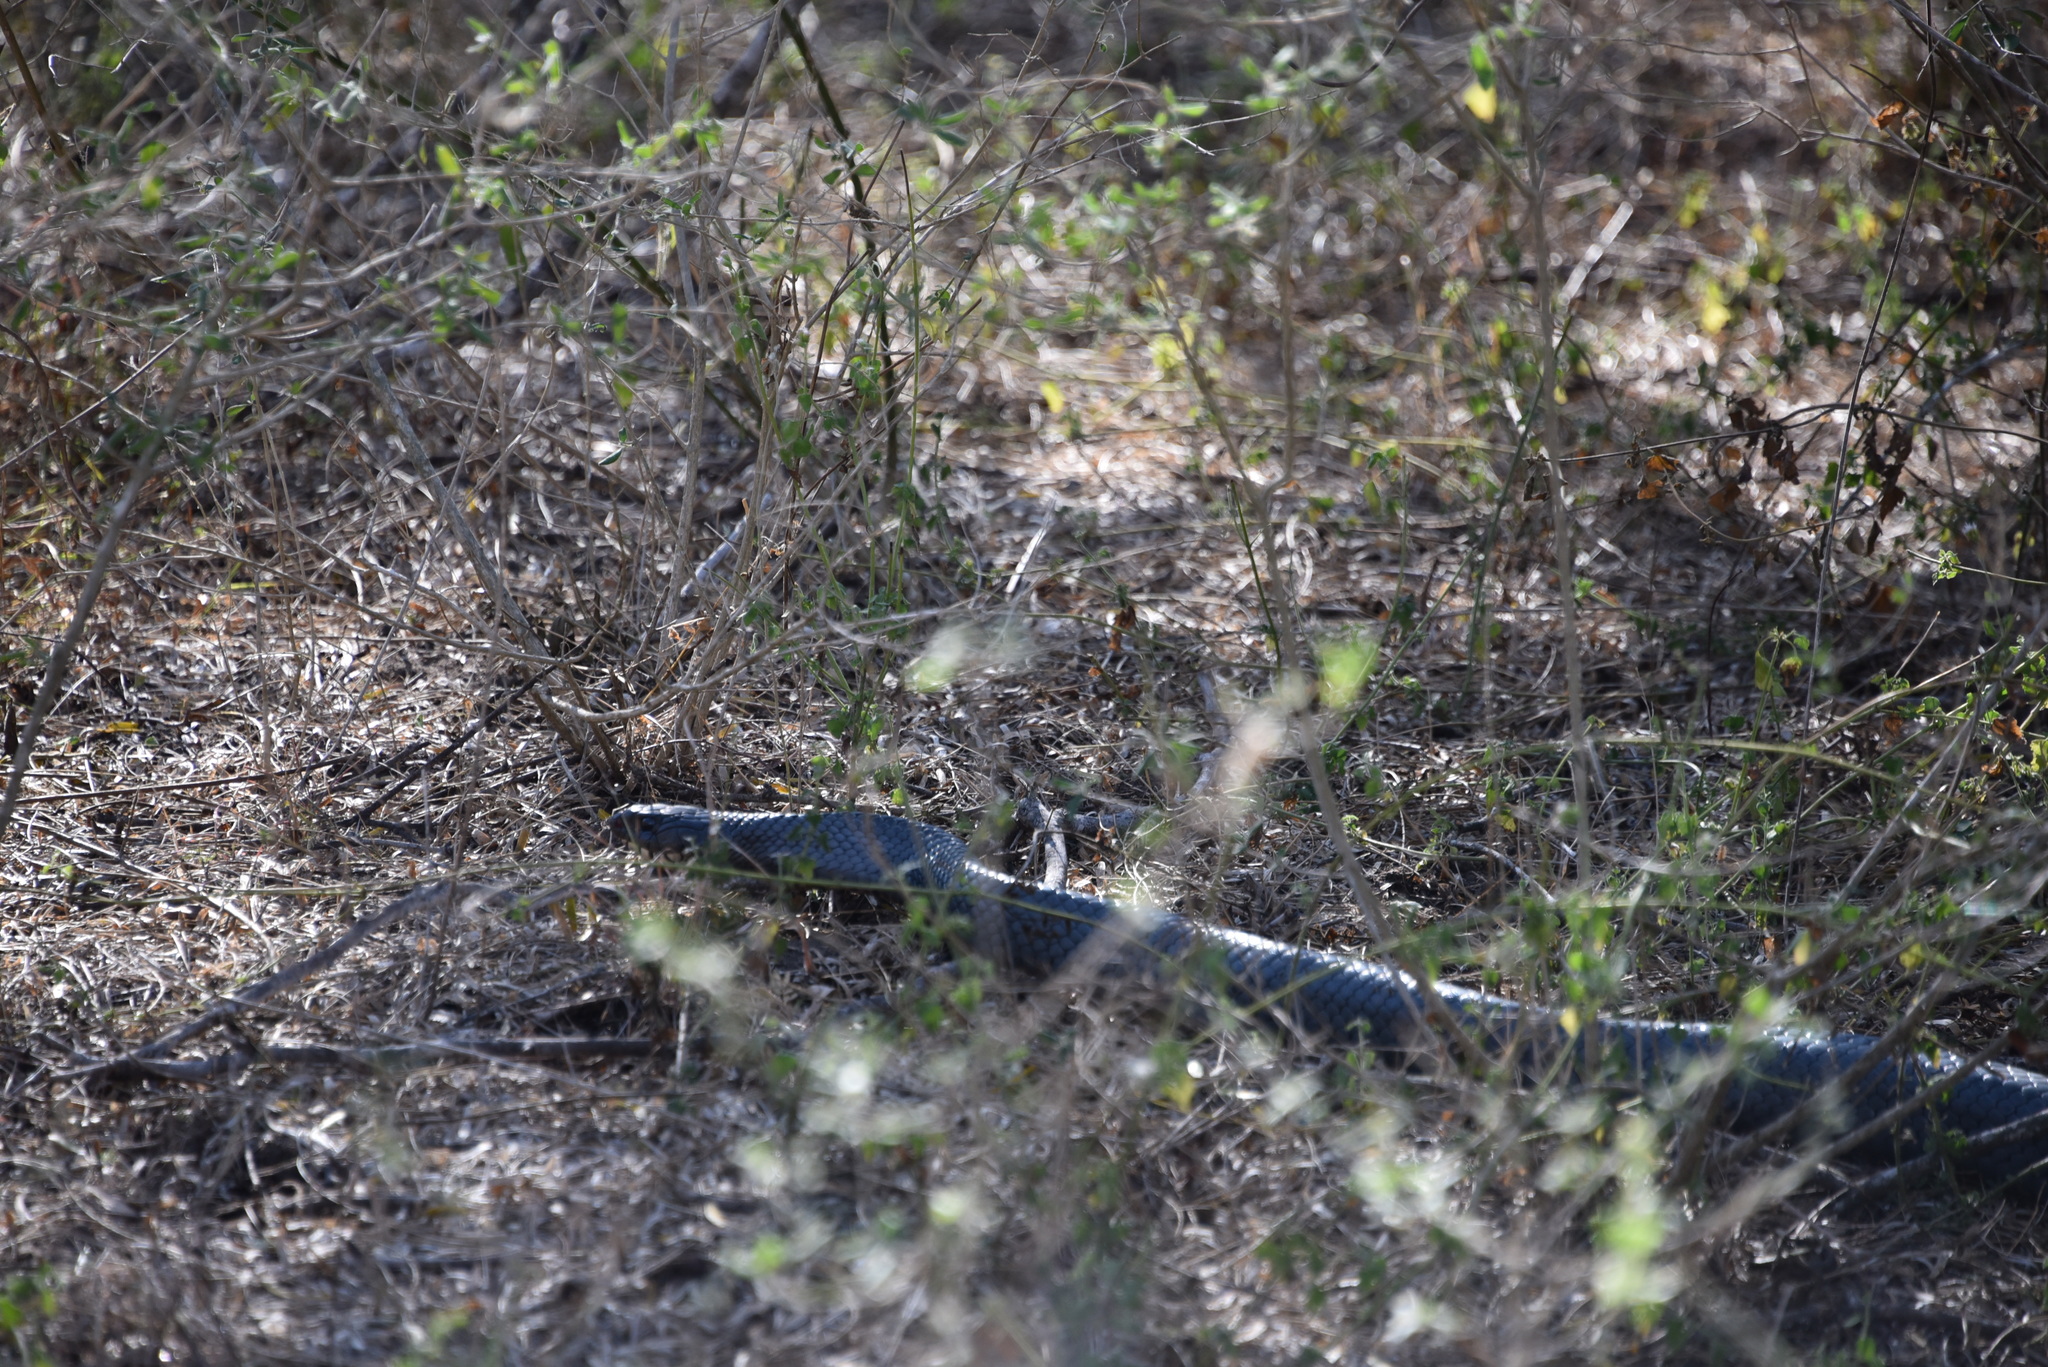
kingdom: Animalia
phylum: Chordata
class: Squamata
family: Colubridae
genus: Drymarchon
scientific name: Drymarchon melanurus
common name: Central american indigo snake
